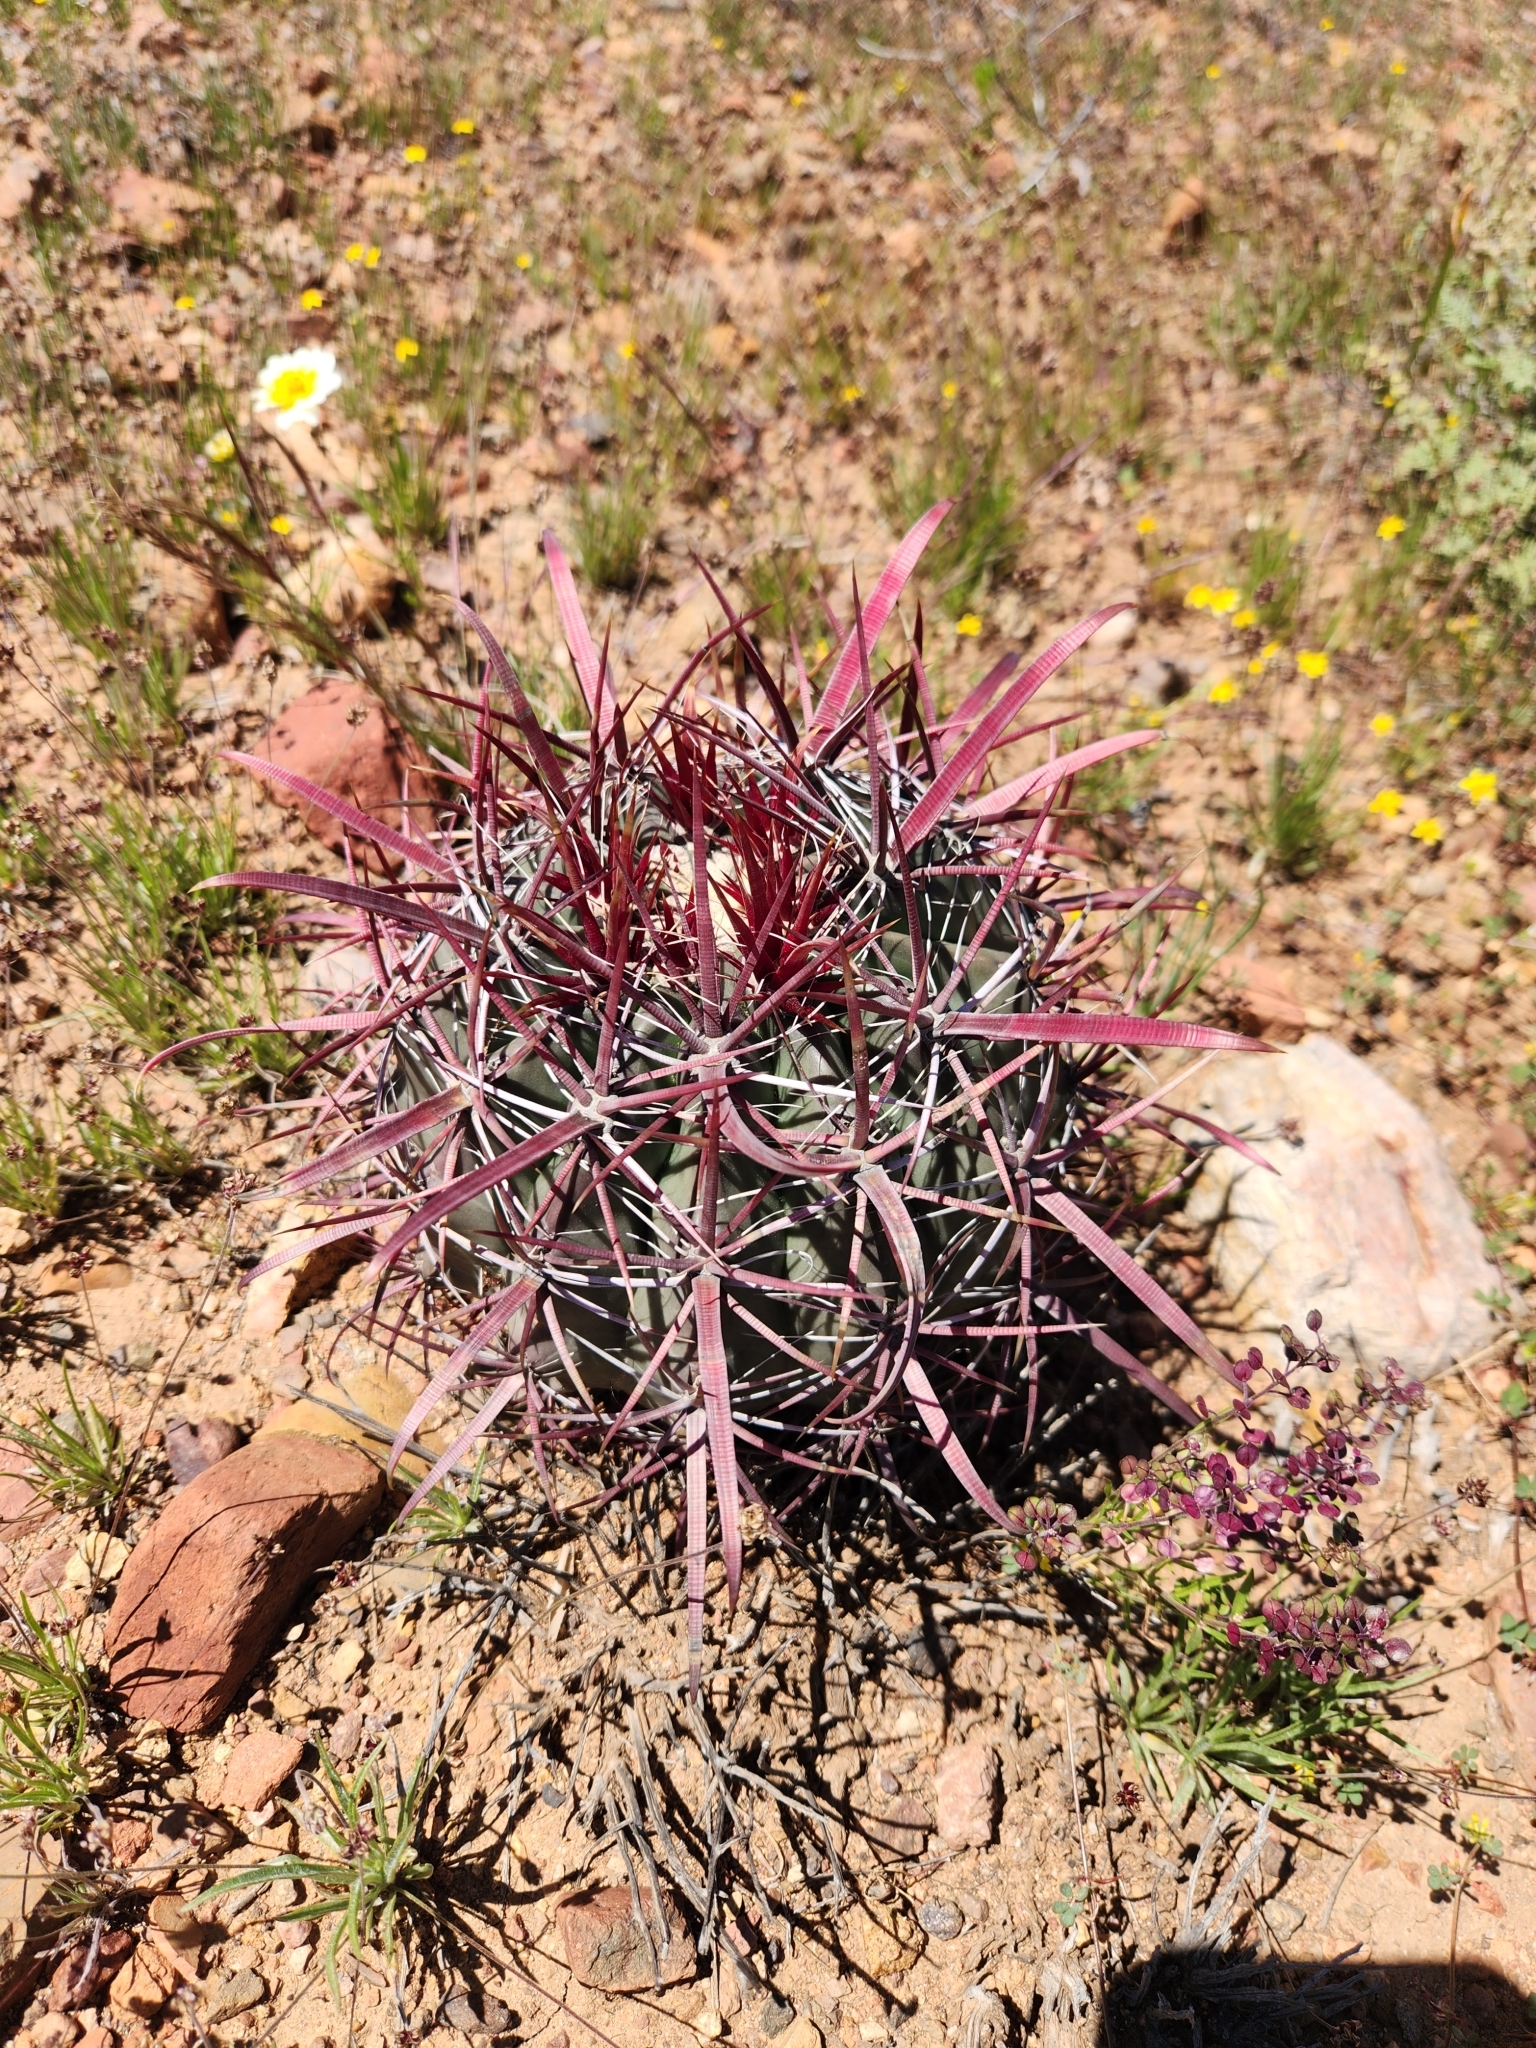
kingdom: Plantae
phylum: Tracheophyta
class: Magnoliopsida
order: Caryophyllales
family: Cactaceae
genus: Ferocactus
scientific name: Ferocactus gracilis
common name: Fire barrel cactus
